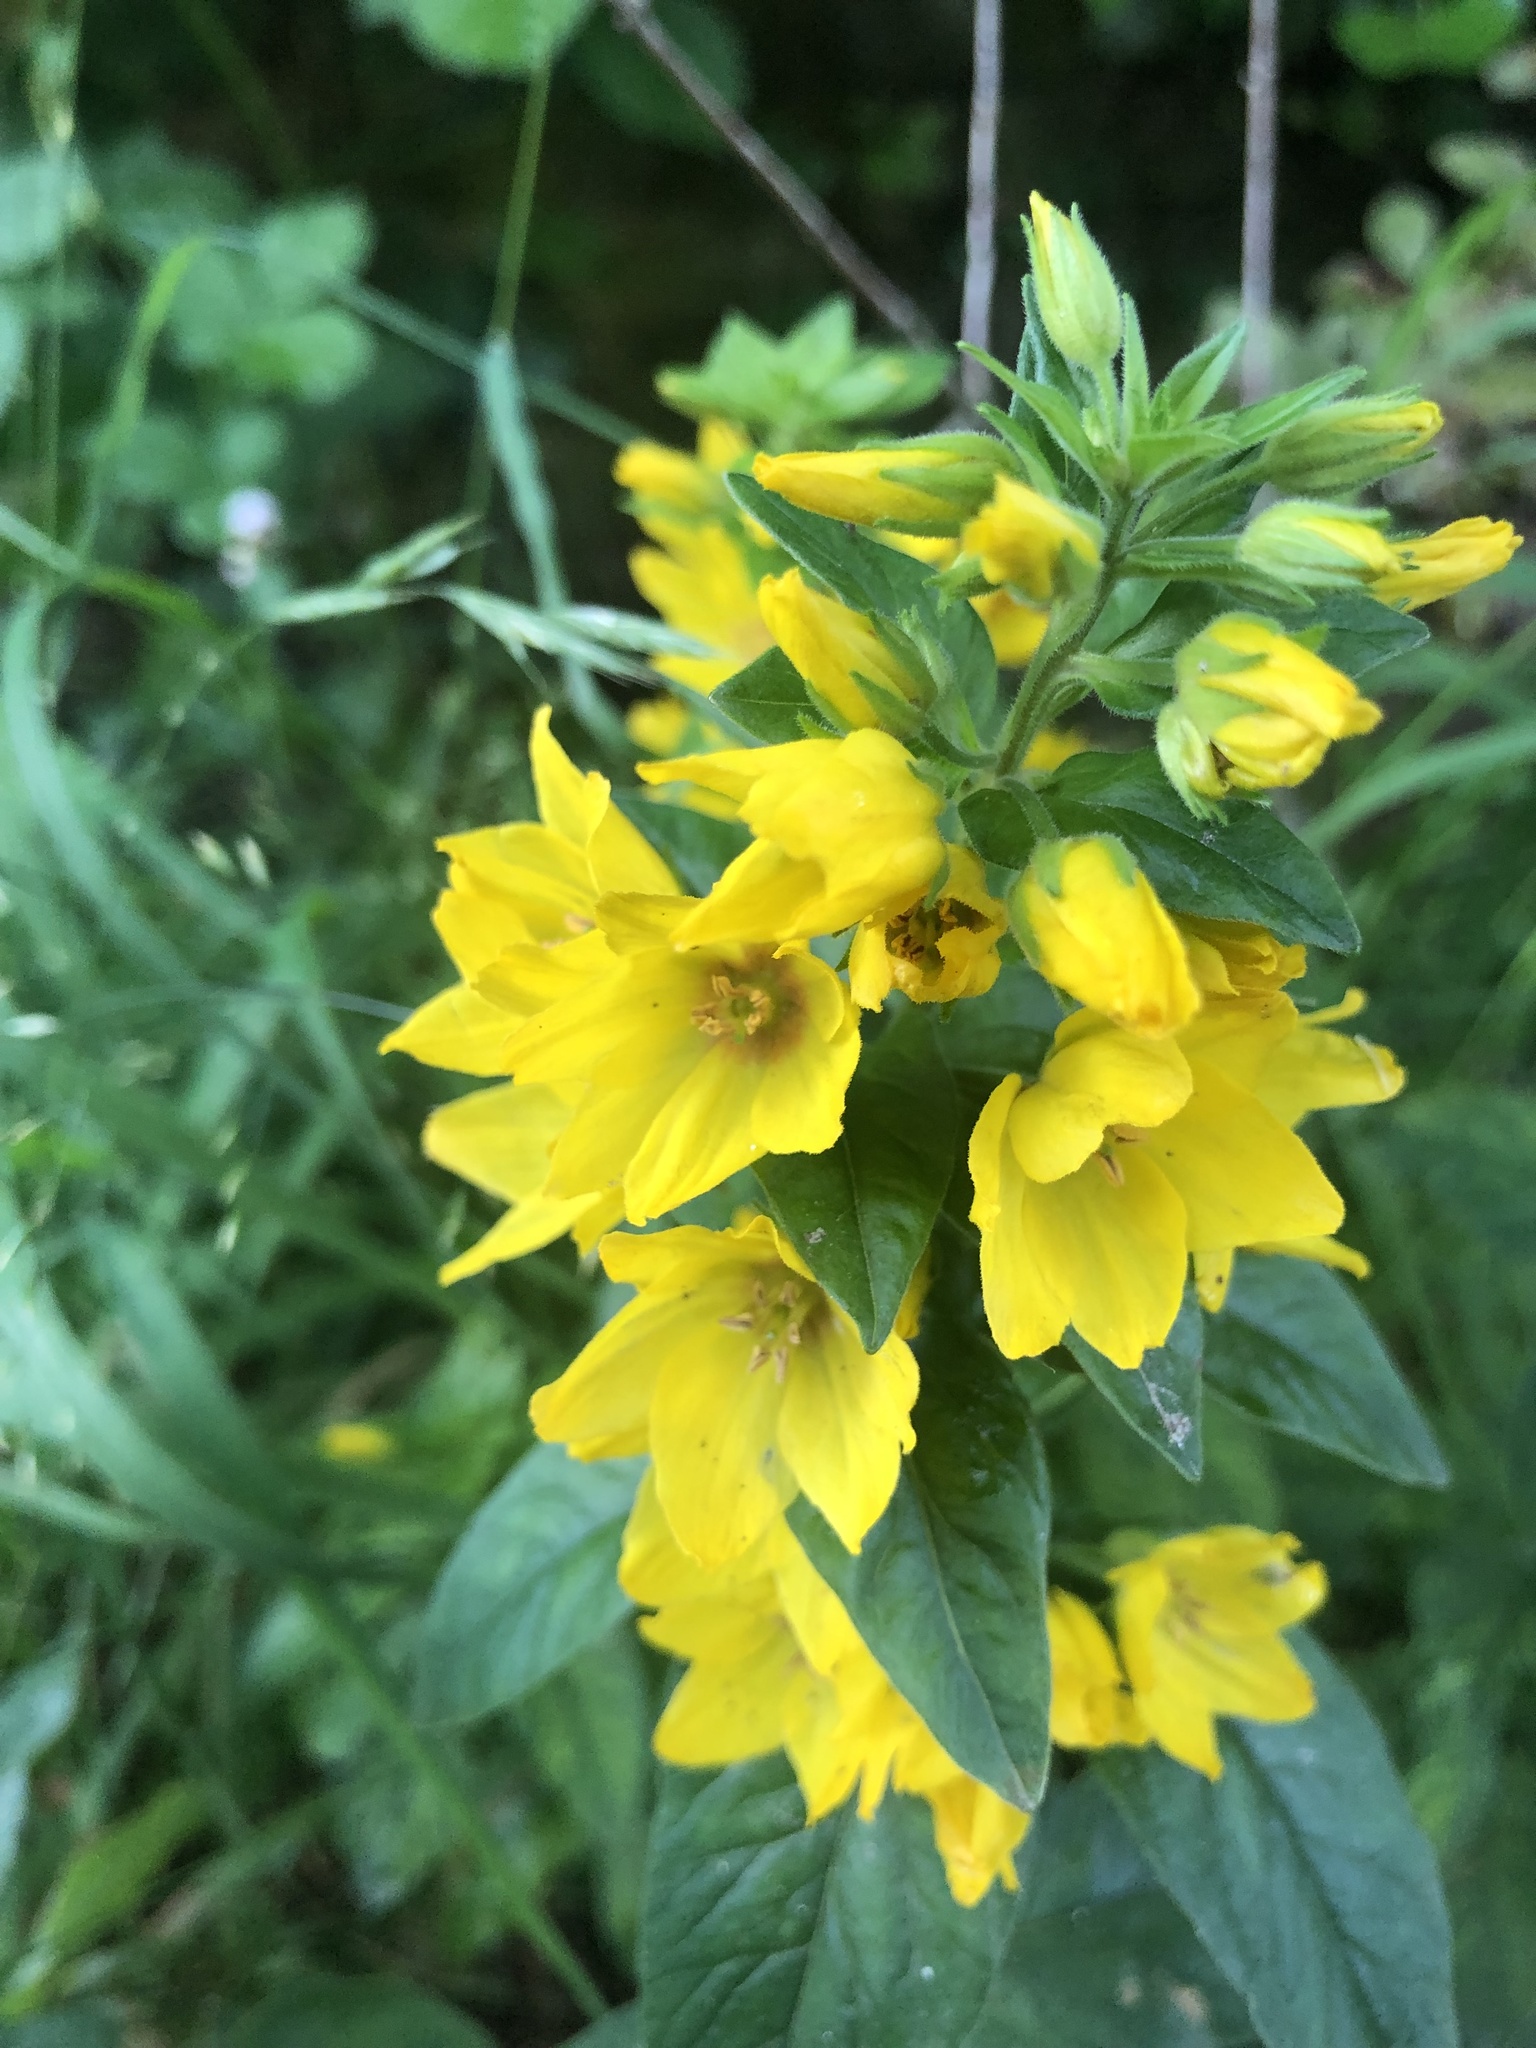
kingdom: Plantae
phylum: Tracheophyta
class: Magnoliopsida
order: Ericales
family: Primulaceae
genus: Lysimachia
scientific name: Lysimachia punctata
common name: Dotted loosestrife
